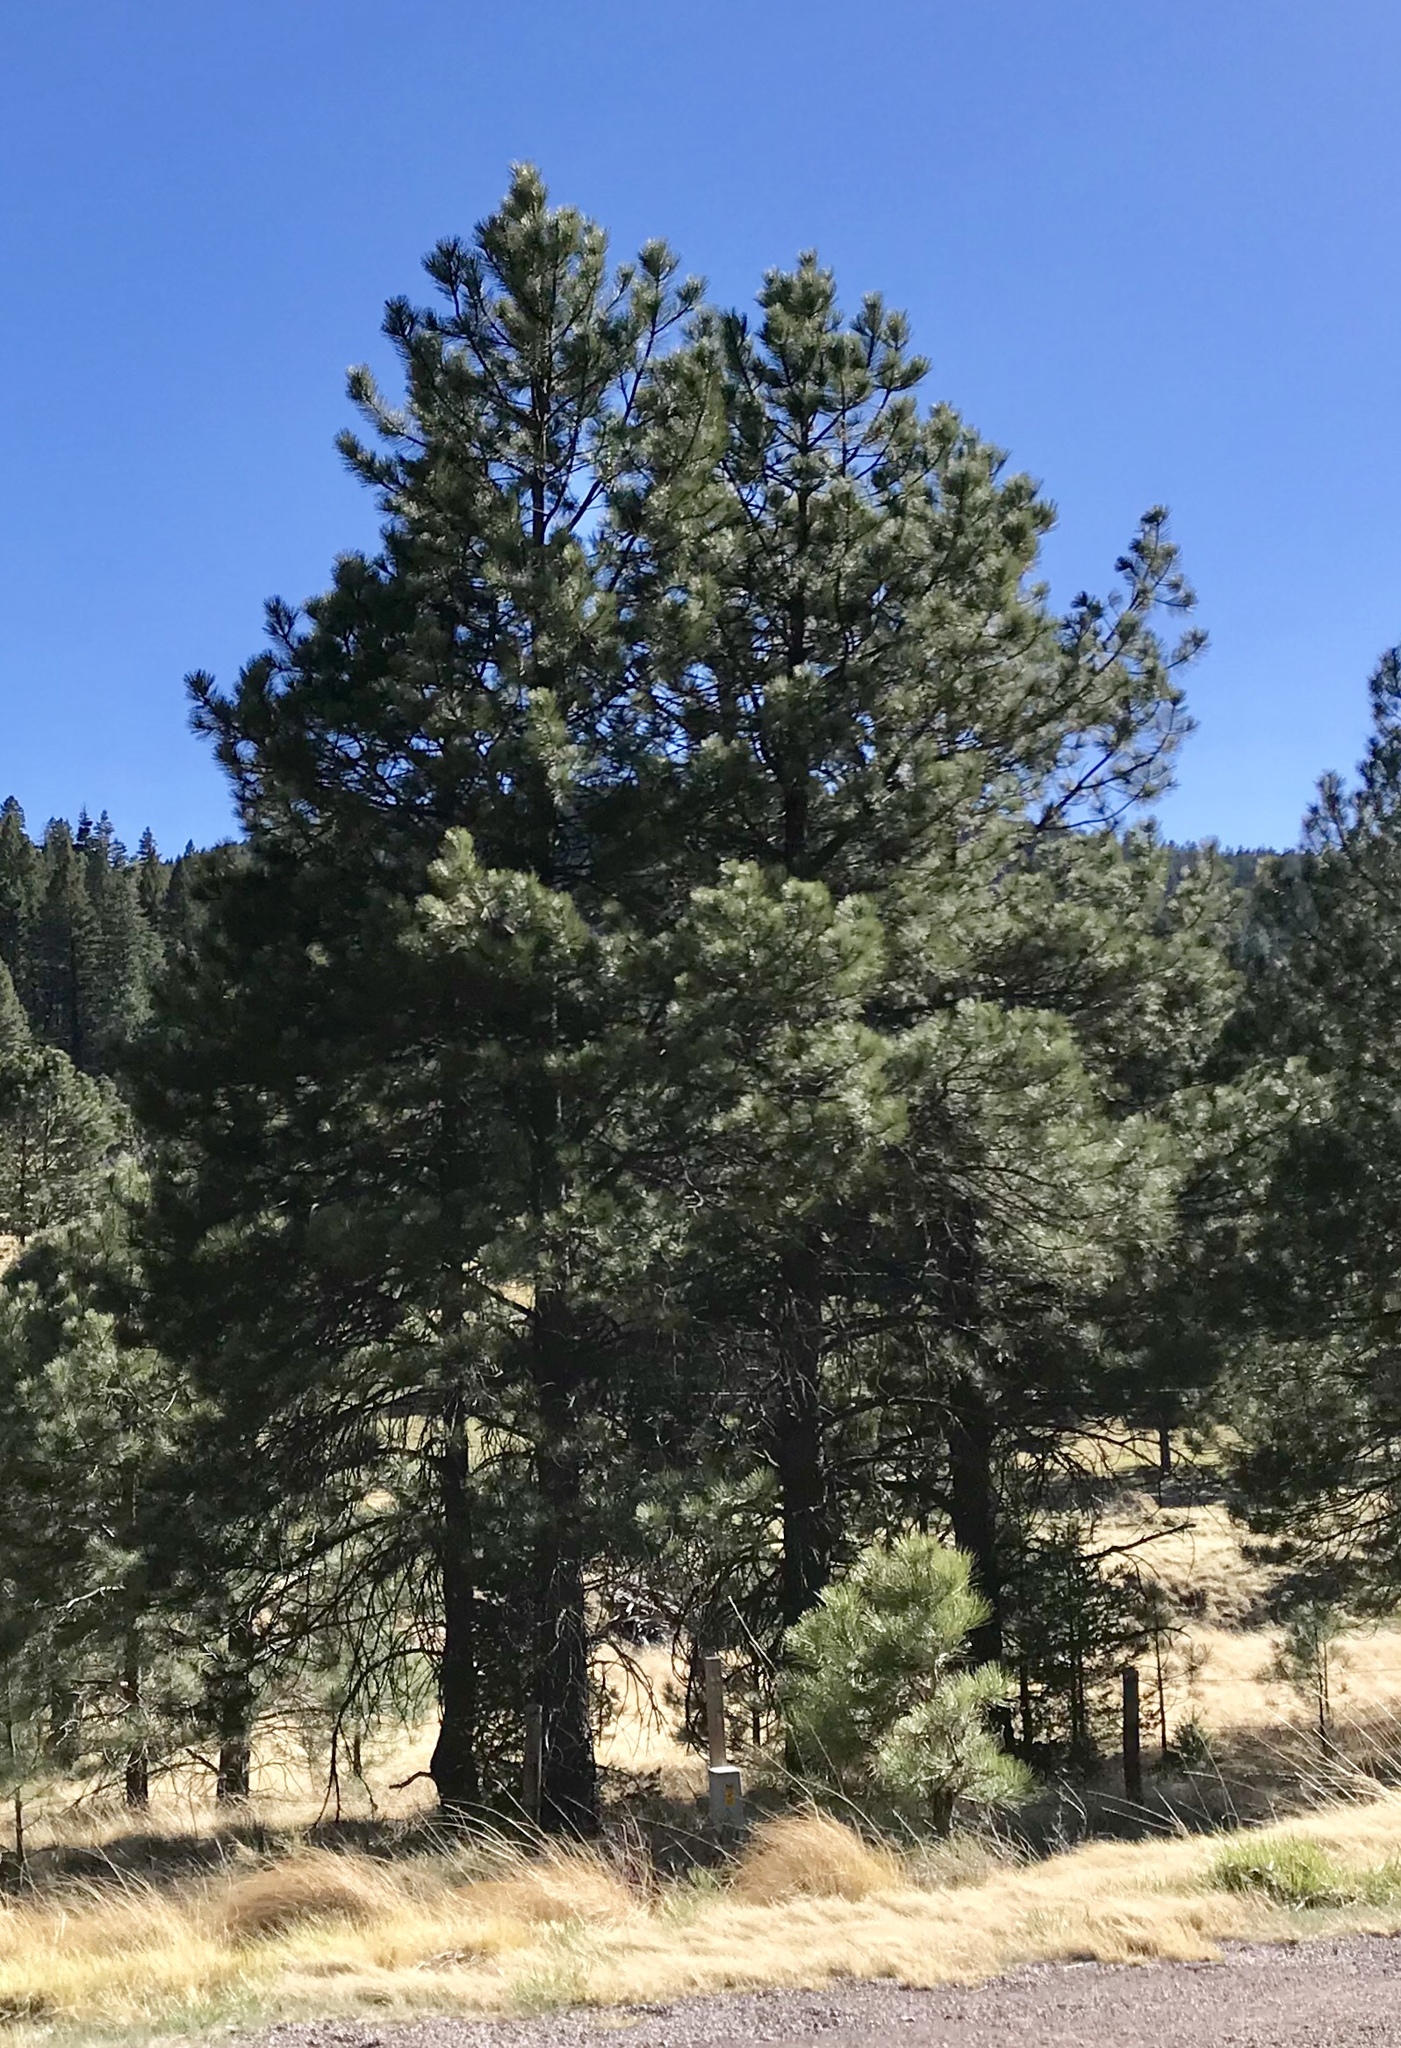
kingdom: Plantae
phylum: Tracheophyta
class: Pinopsida
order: Pinales
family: Pinaceae
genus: Pinus
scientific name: Pinus ponderosa
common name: Western yellow-pine
